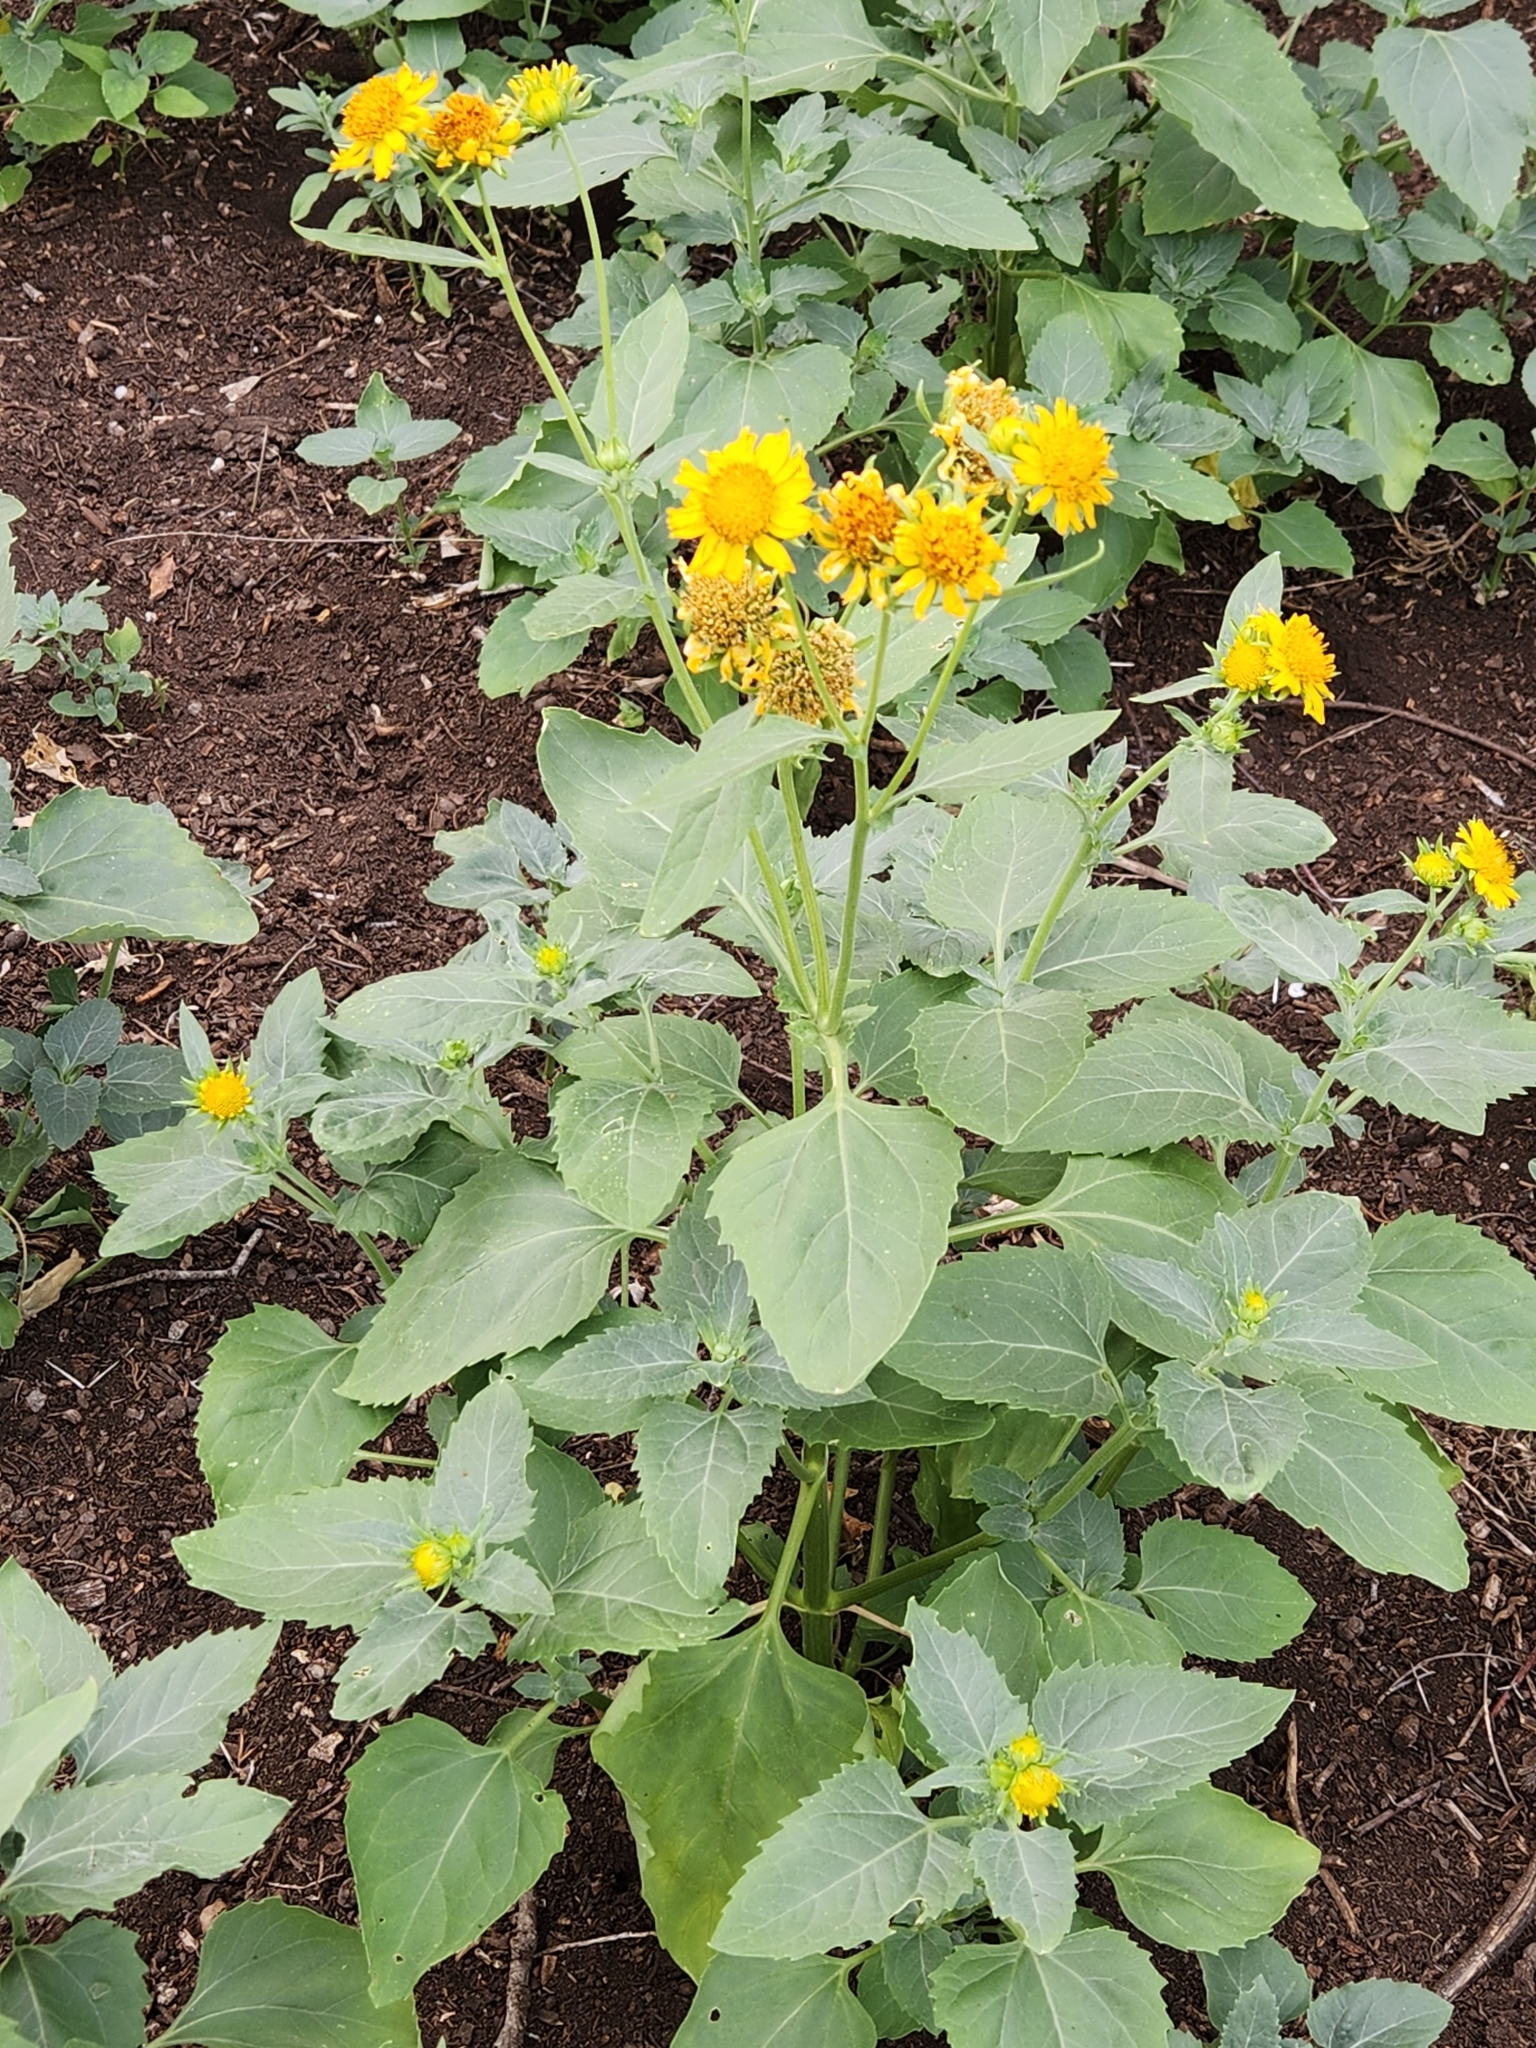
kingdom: Plantae
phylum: Tracheophyta
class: Magnoliopsida
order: Asterales
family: Asteraceae
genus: Verbesina
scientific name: Verbesina encelioides
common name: Golden crownbeard
